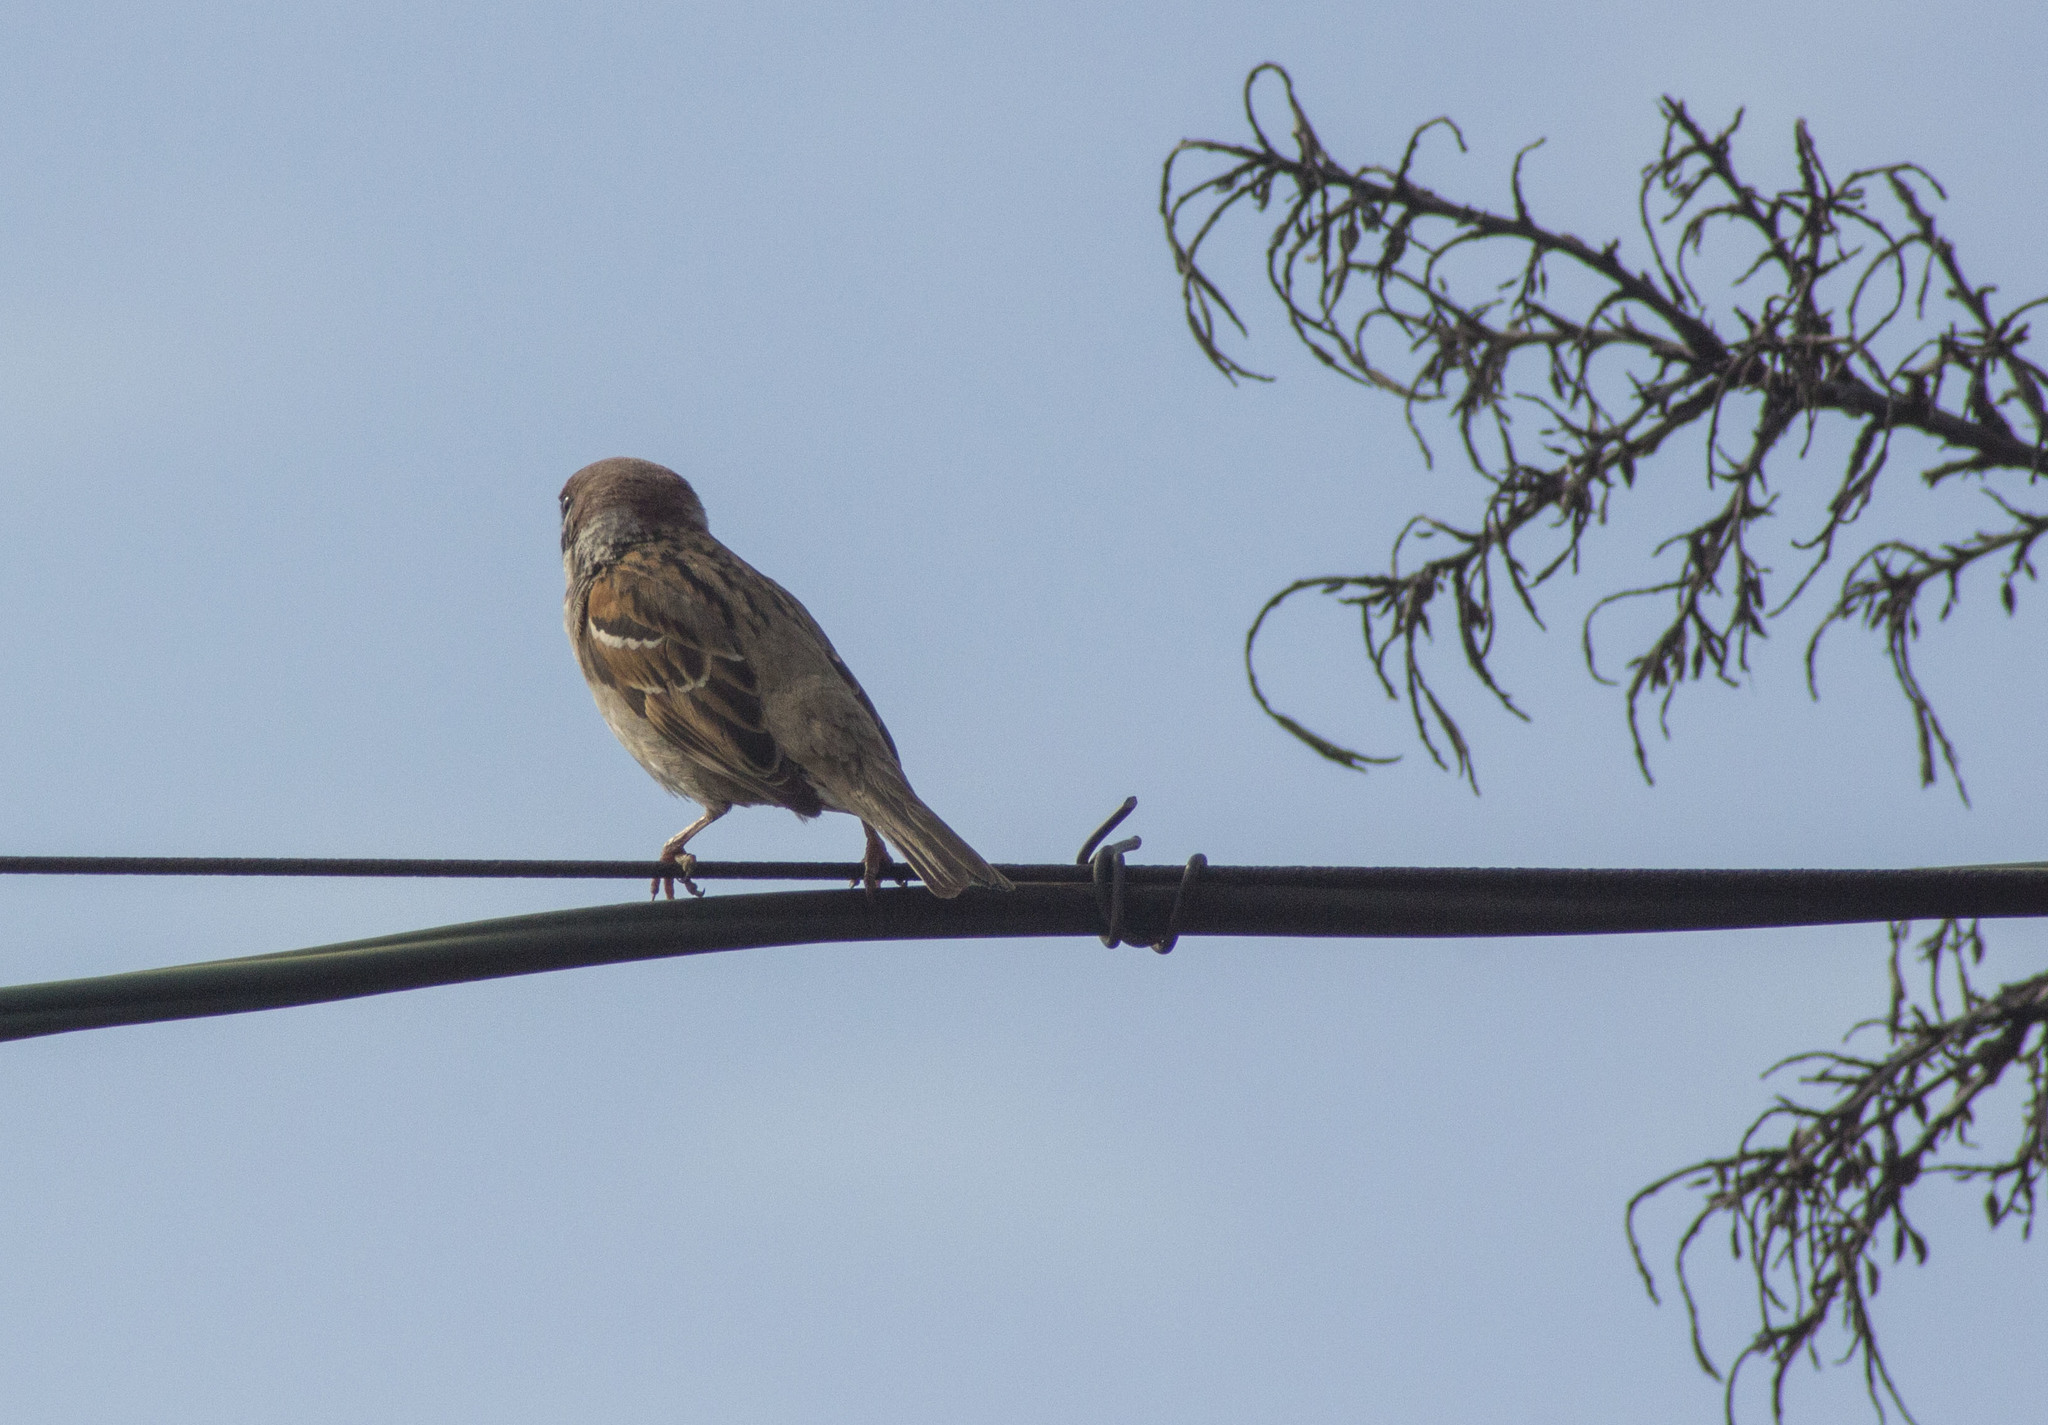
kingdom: Animalia
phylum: Chordata
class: Aves
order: Passeriformes
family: Passeridae
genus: Passer
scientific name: Passer montanus
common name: Eurasian tree sparrow
